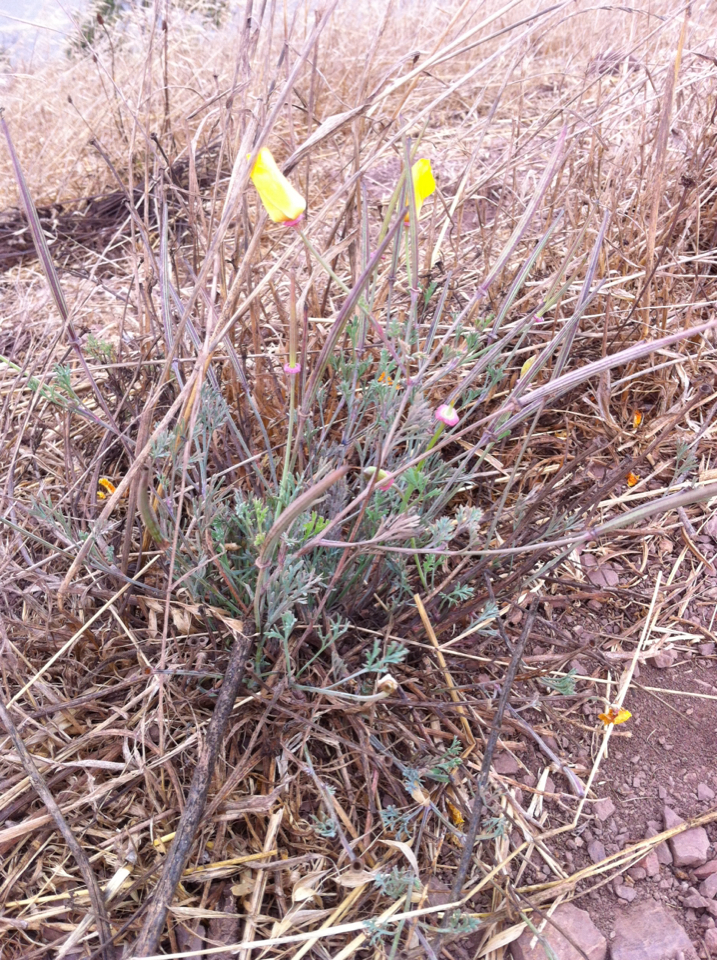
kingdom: Plantae
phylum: Tracheophyta
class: Magnoliopsida
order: Ranunculales
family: Papaveraceae
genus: Eschscholzia
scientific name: Eschscholzia californica
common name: California poppy
